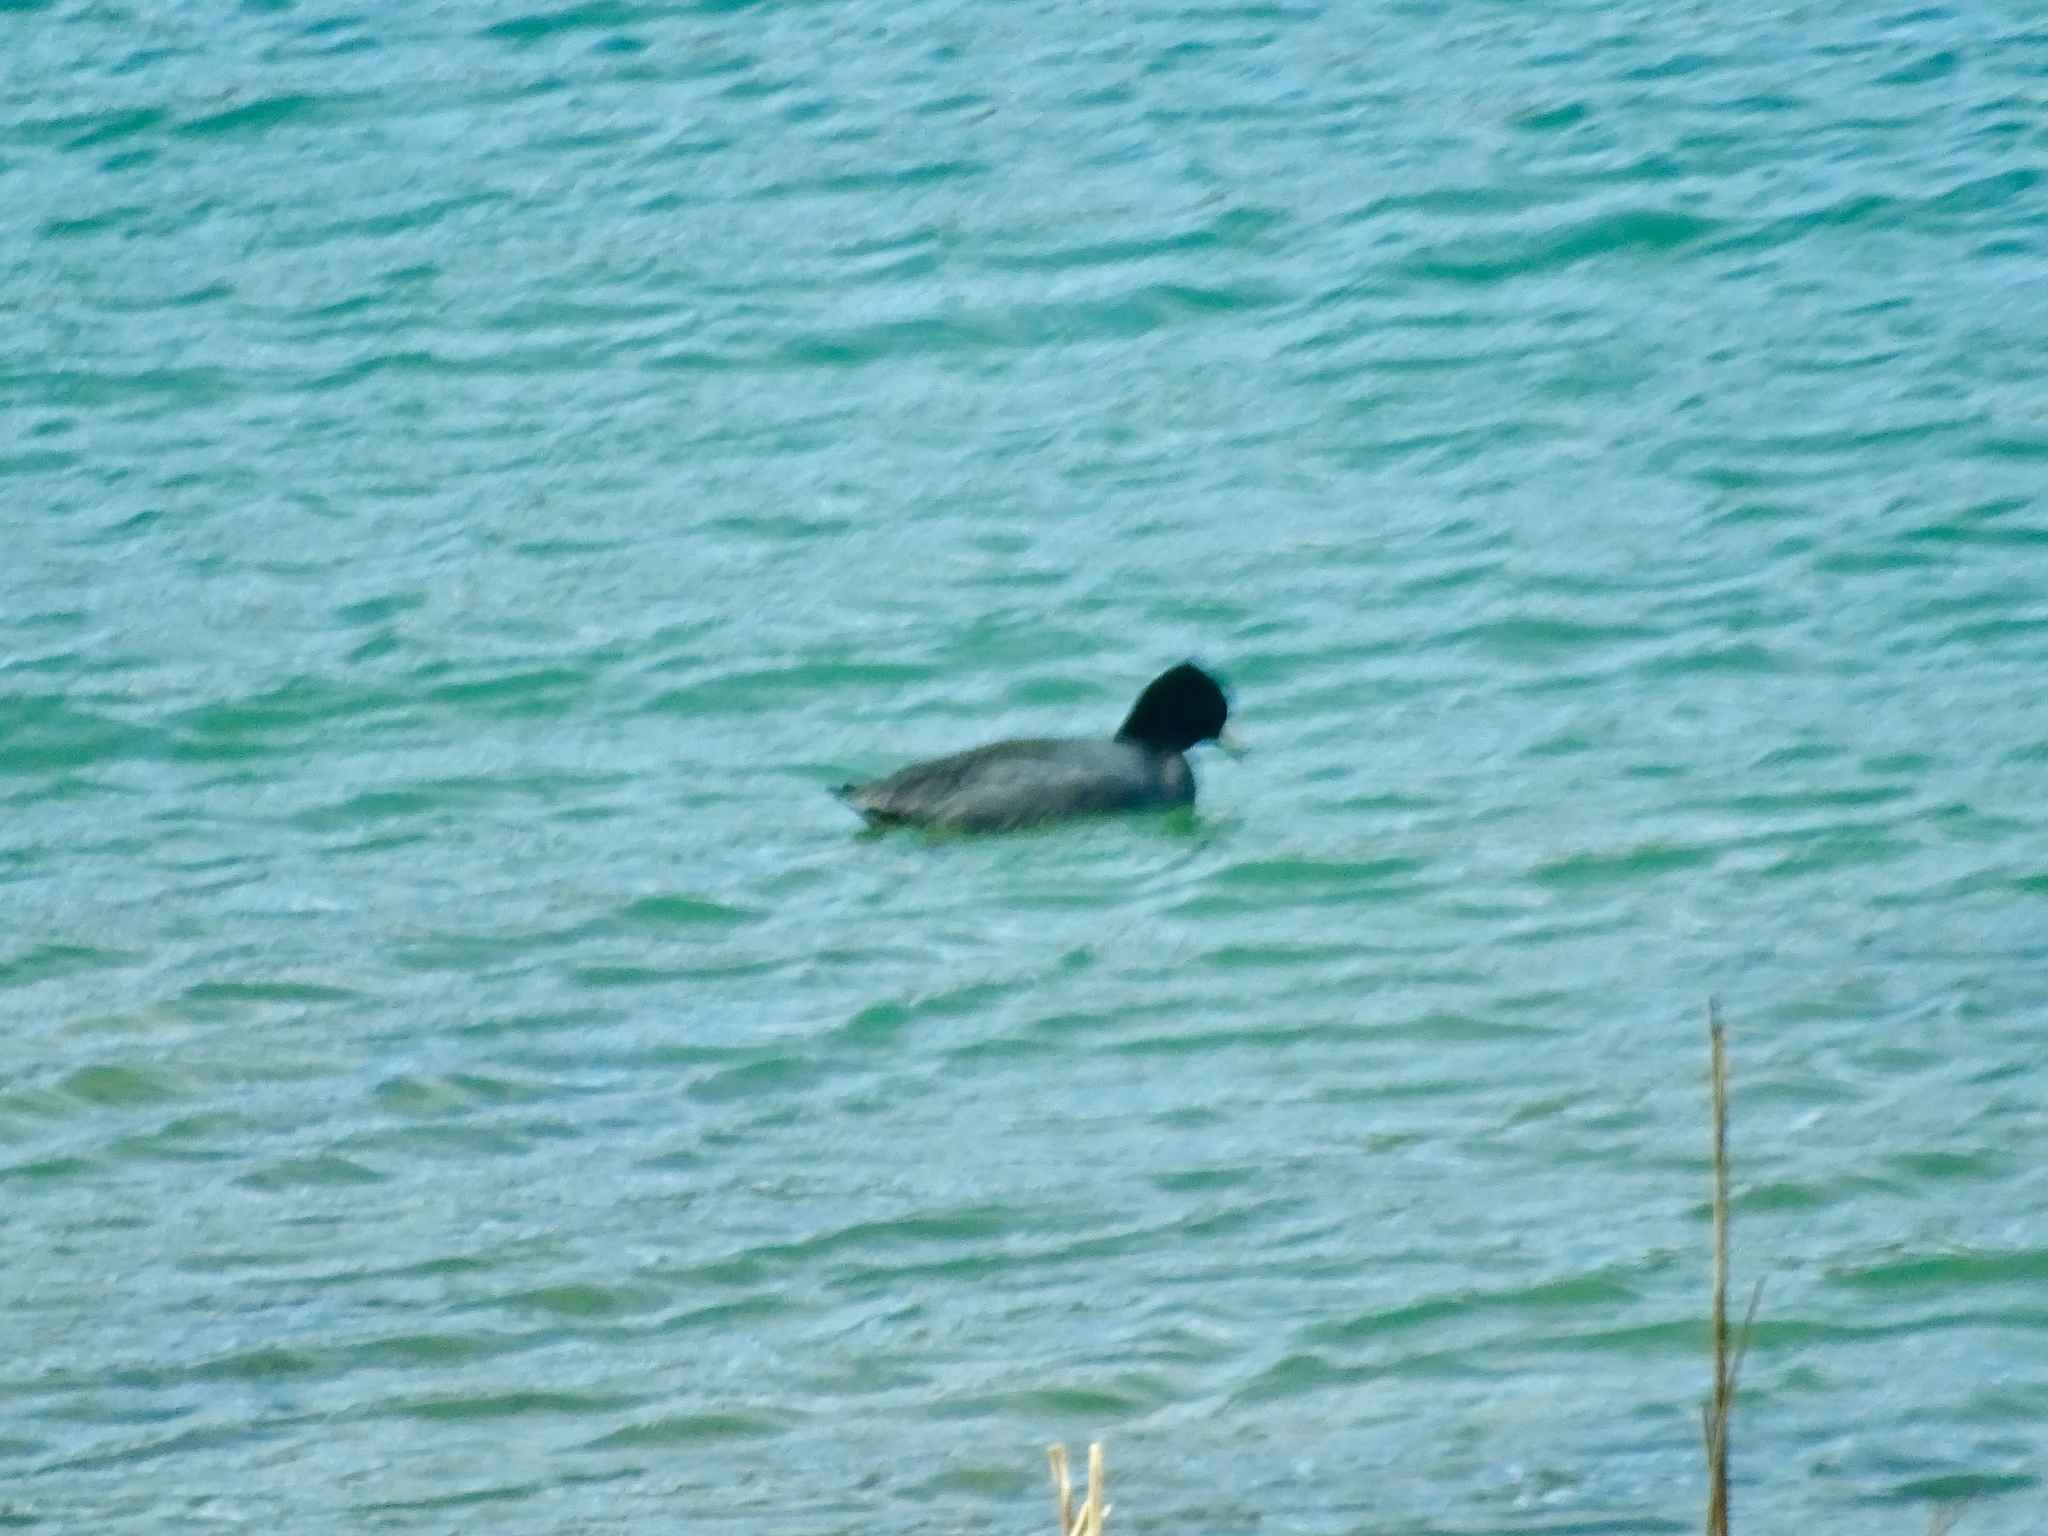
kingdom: Animalia
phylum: Chordata
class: Aves
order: Gruiformes
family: Rallidae
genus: Fulica
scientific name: Fulica americana
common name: American coot
